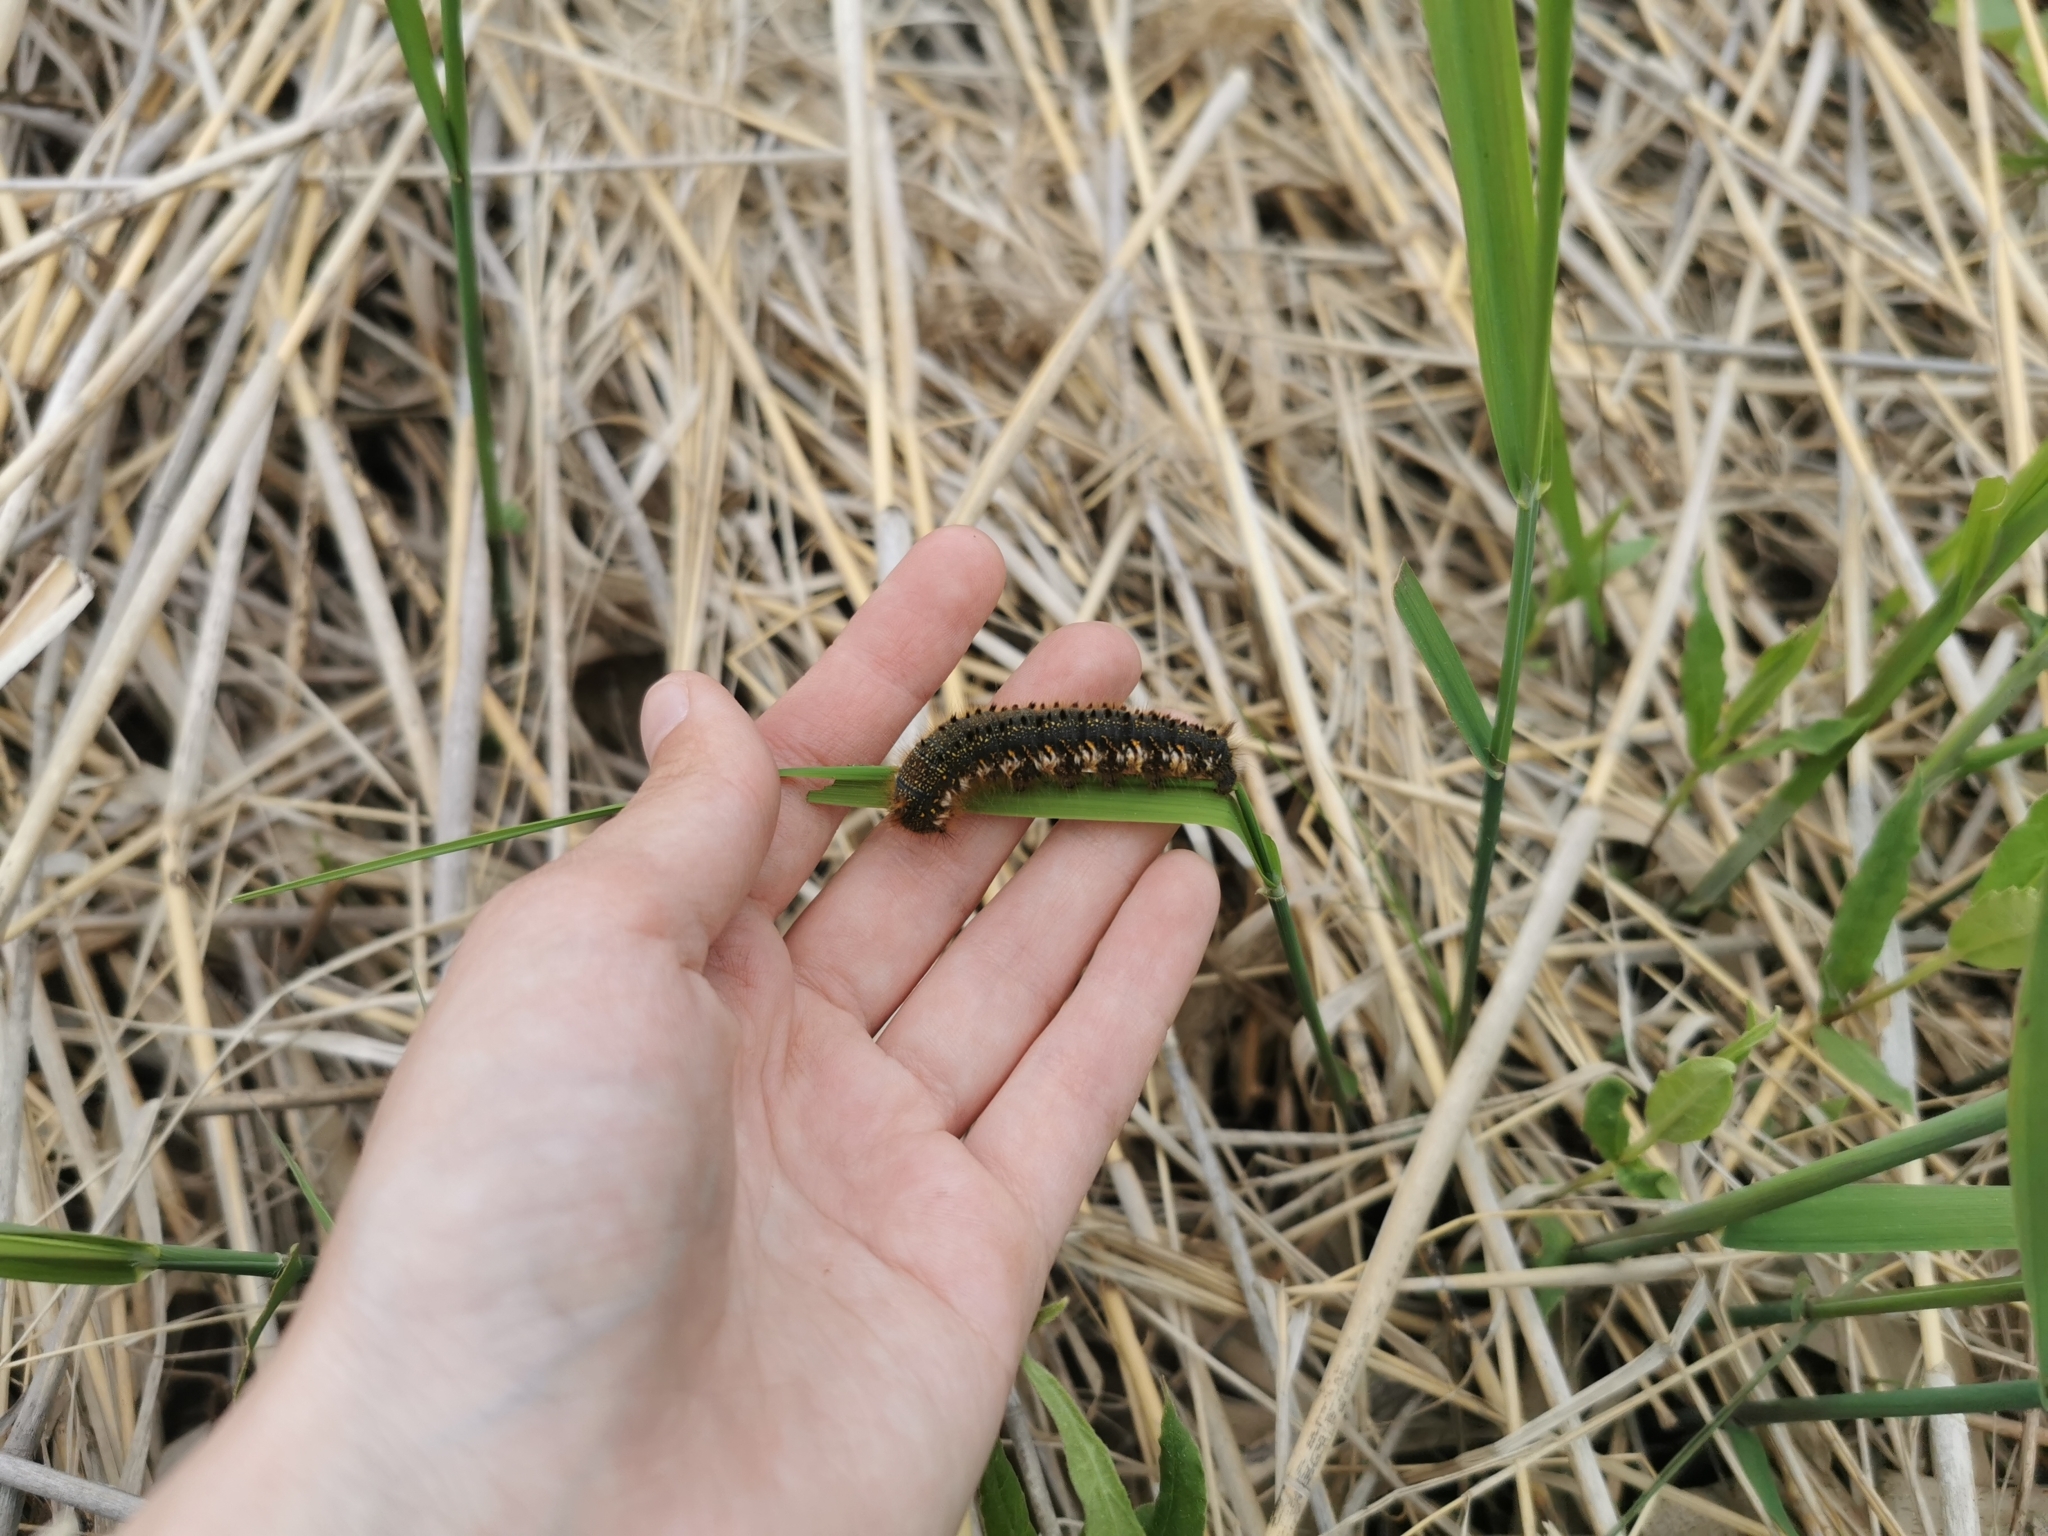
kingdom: Animalia
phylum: Arthropoda
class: Insecta
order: Lepidoptera
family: Lasiocampidae
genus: Euthrix
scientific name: Euthrix potatoria
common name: Drinker
